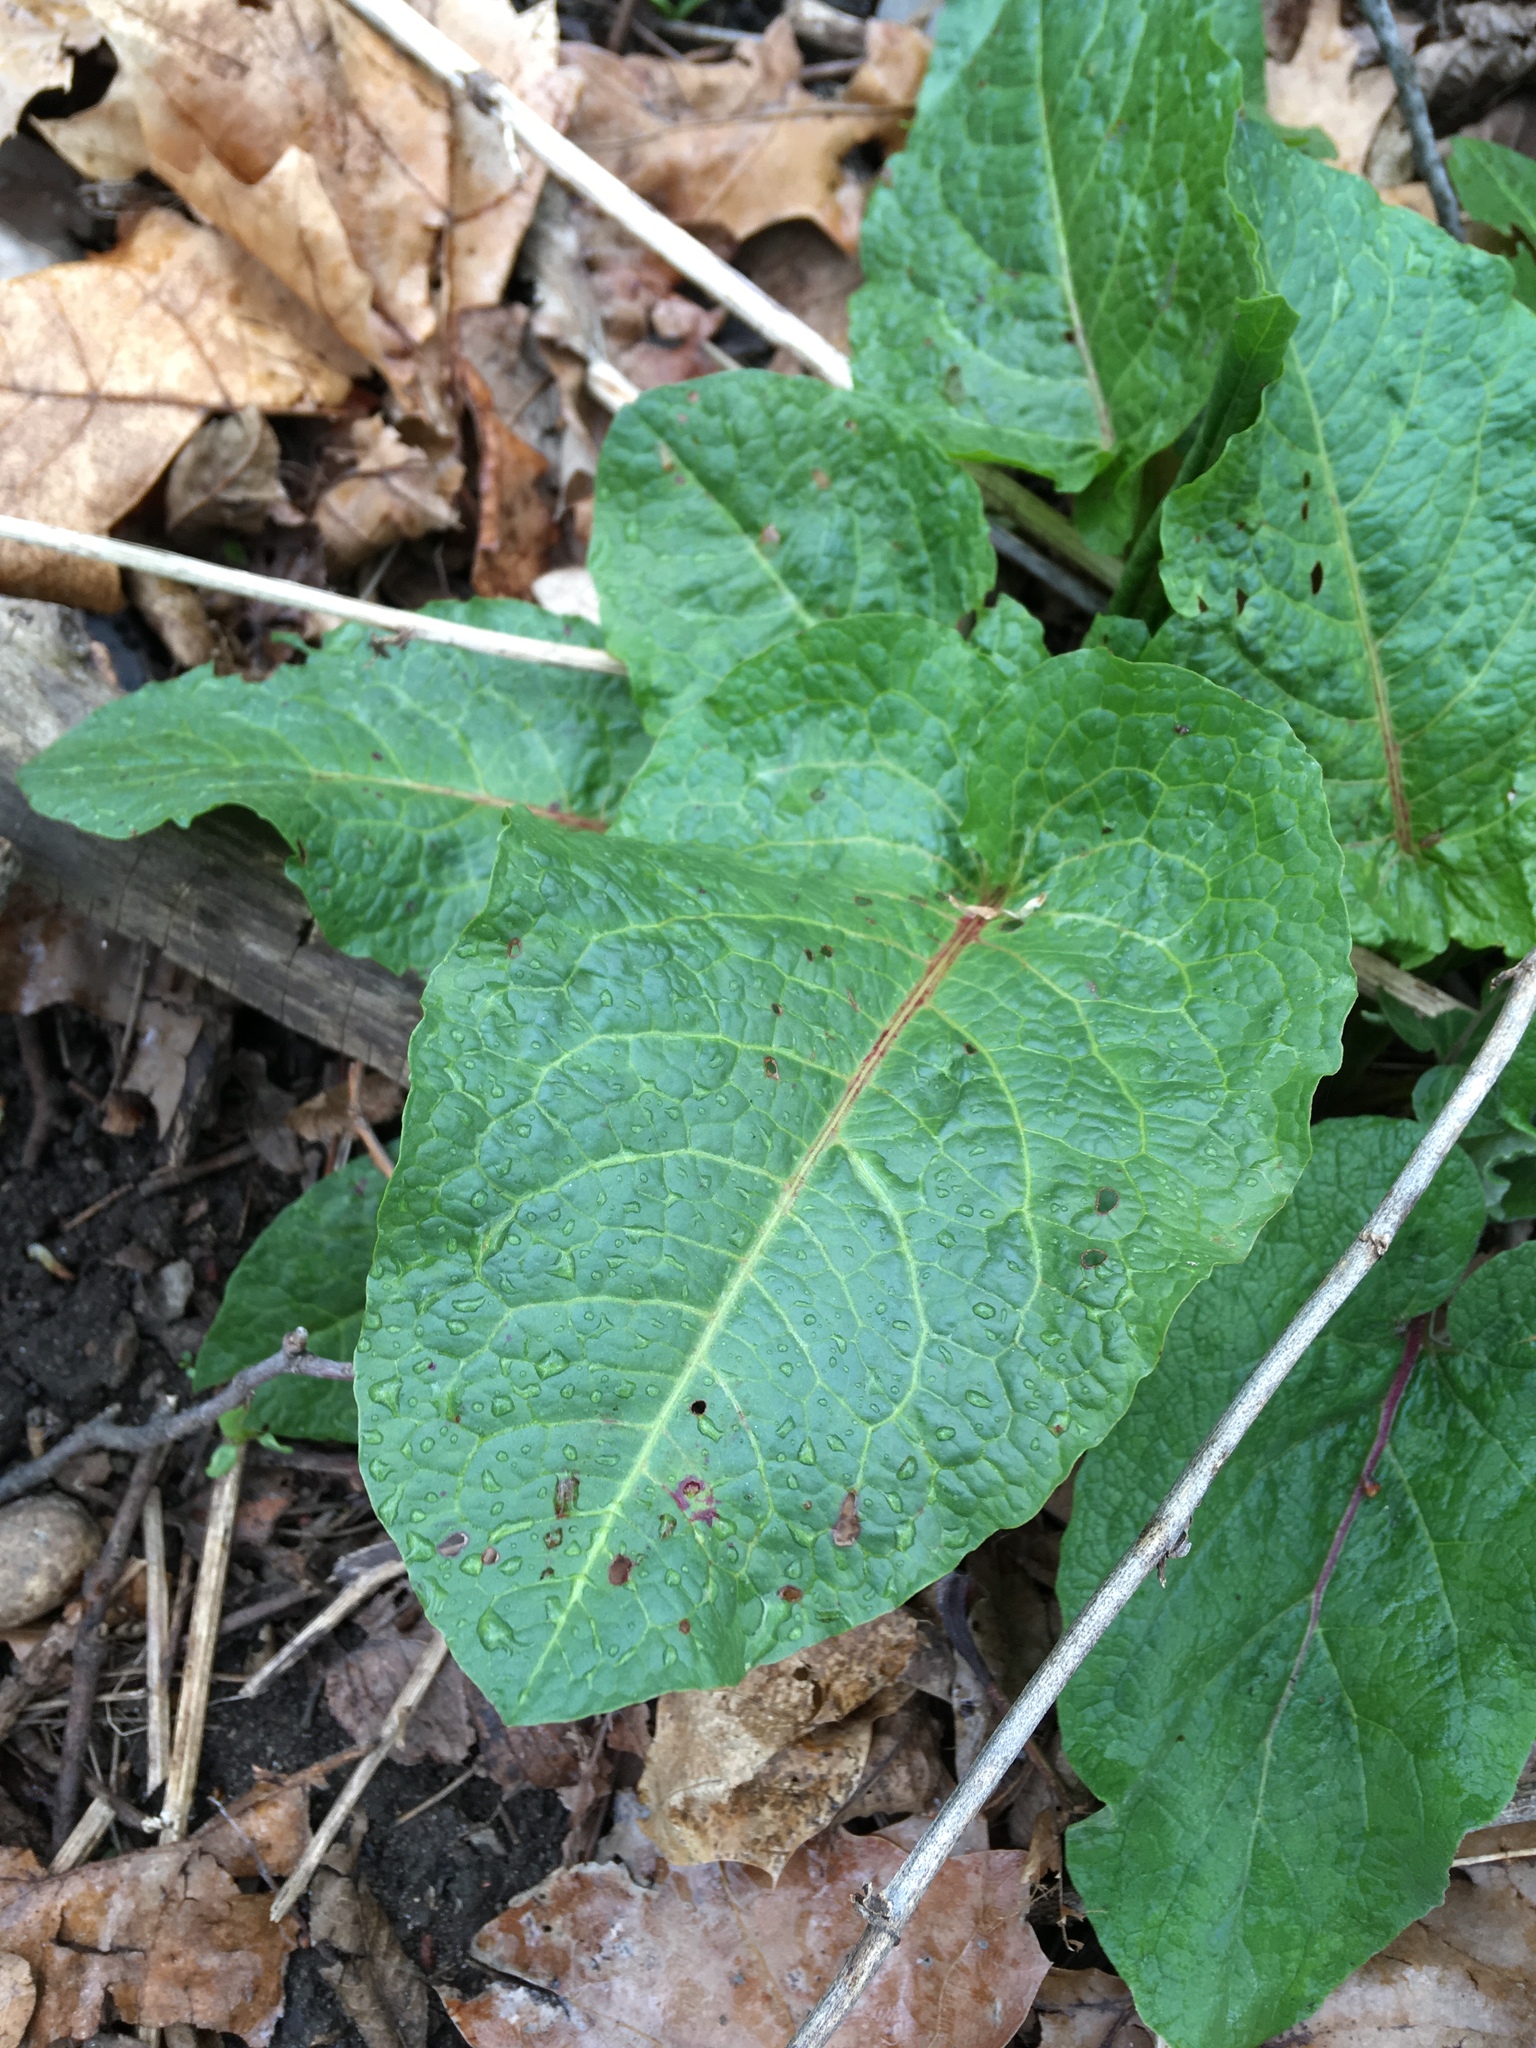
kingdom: Plantae
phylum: Tracheophyta
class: Magnoliopsida
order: Caryophyllales
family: Polygonaceae
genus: Rumex
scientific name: Rumex obtusifolius
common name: Bitter dock
